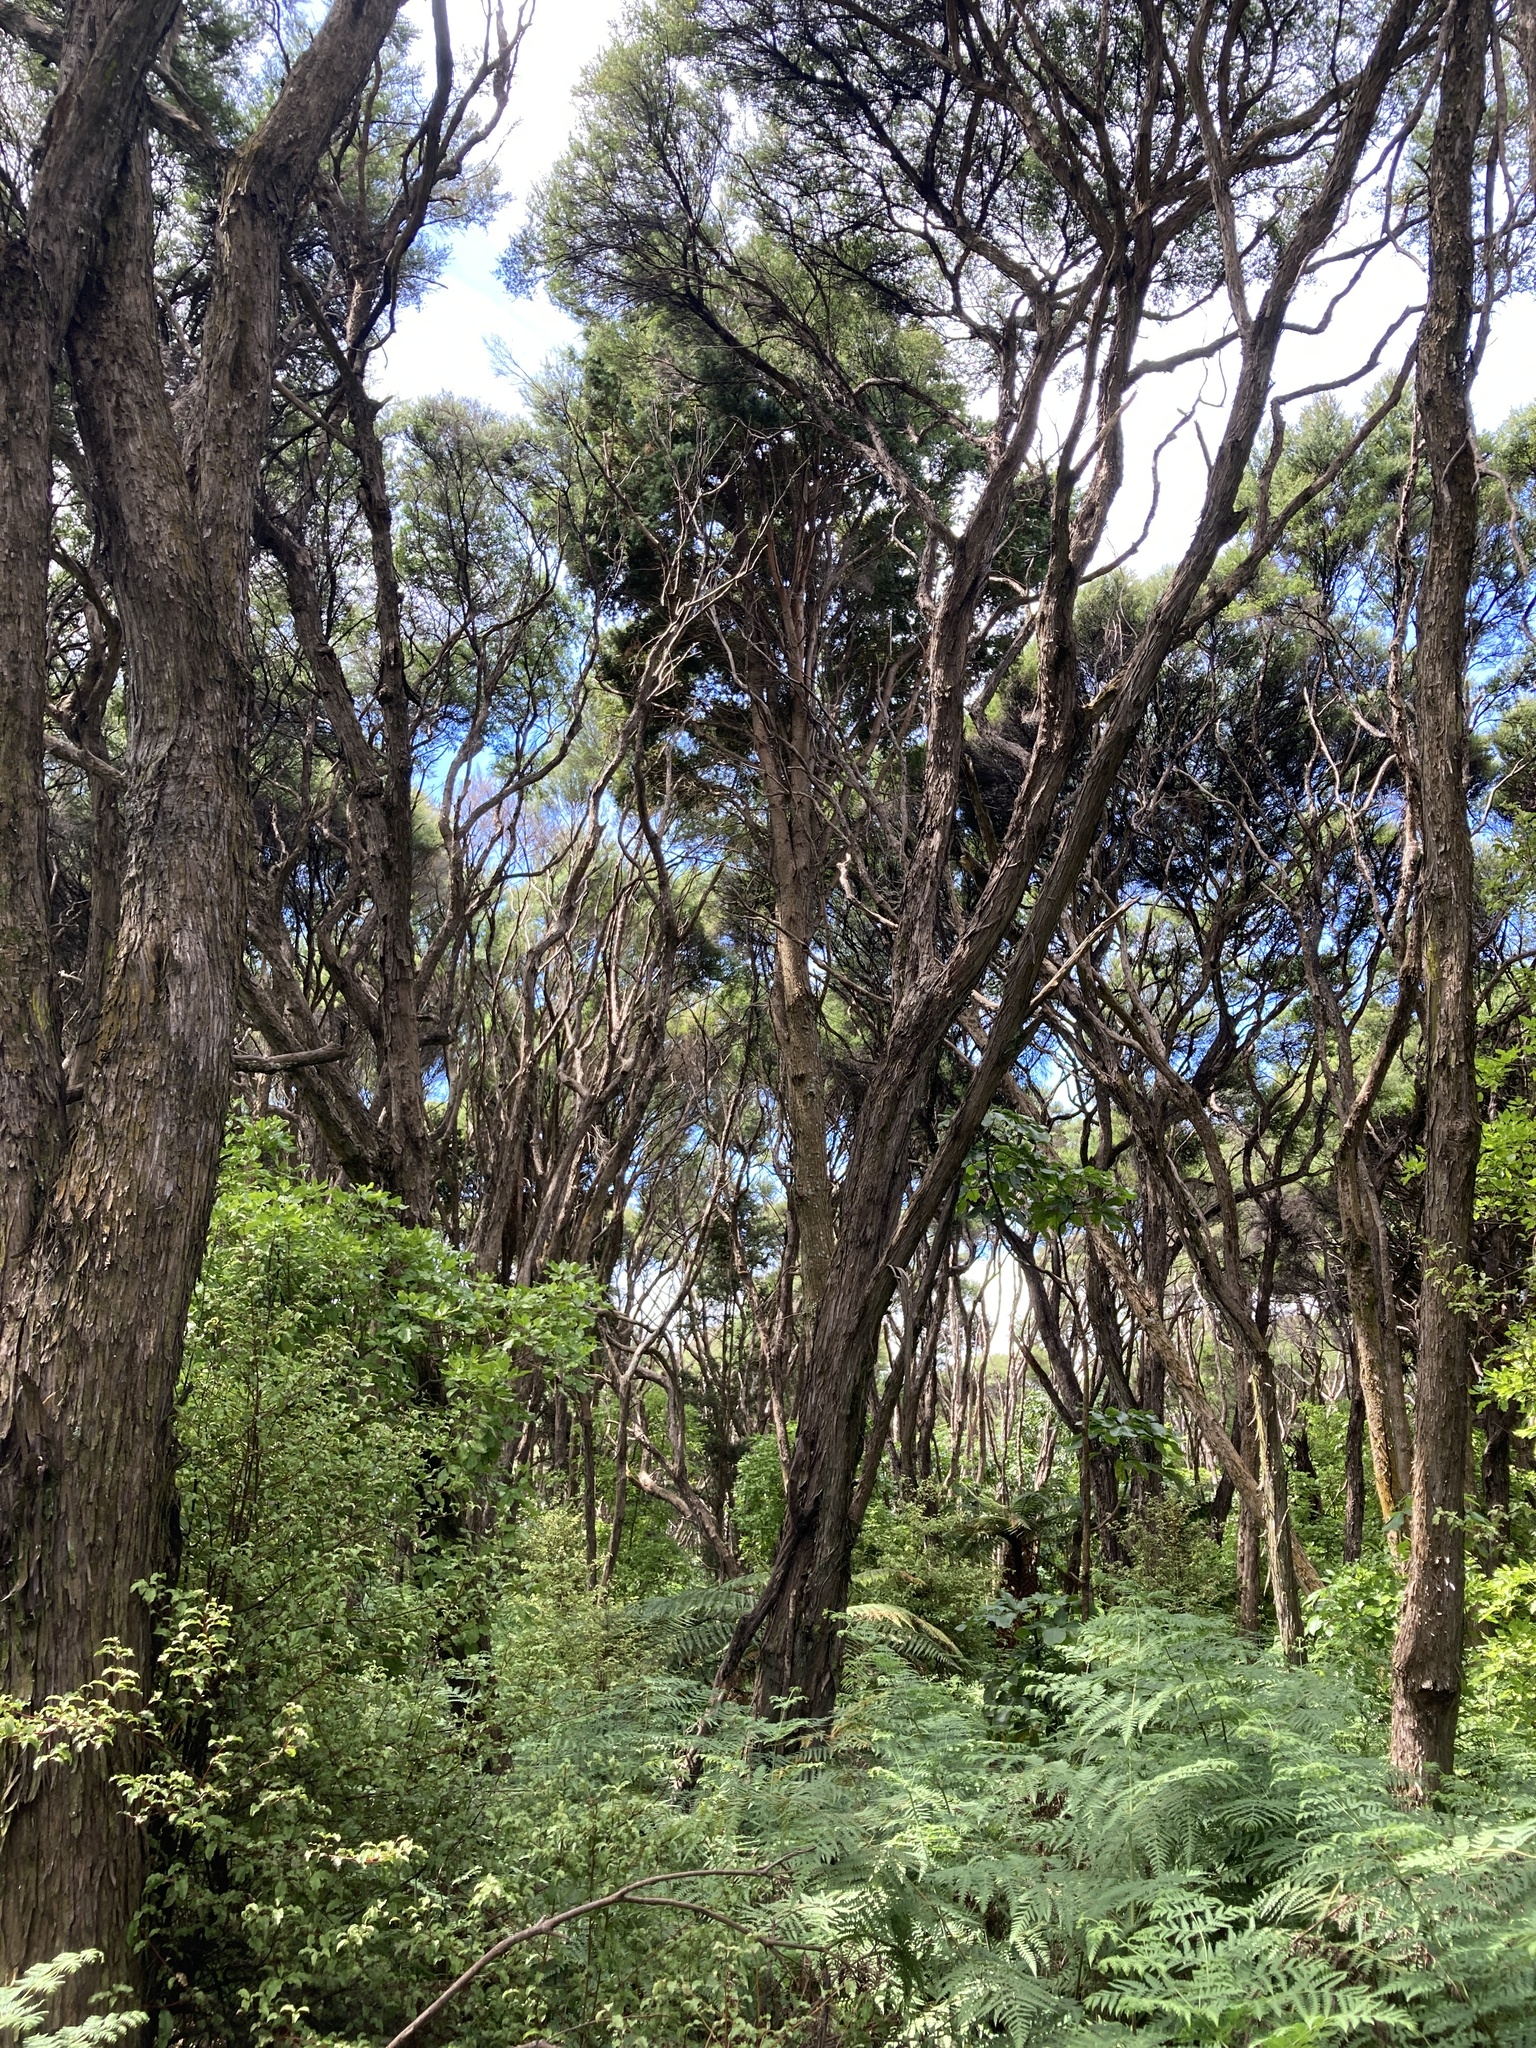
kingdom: Plantae
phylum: Tracheophyta
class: Pinopsida
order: Pinales
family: Podocarpaceae
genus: Podocarpus
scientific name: Podocarpus totara
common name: Totara
